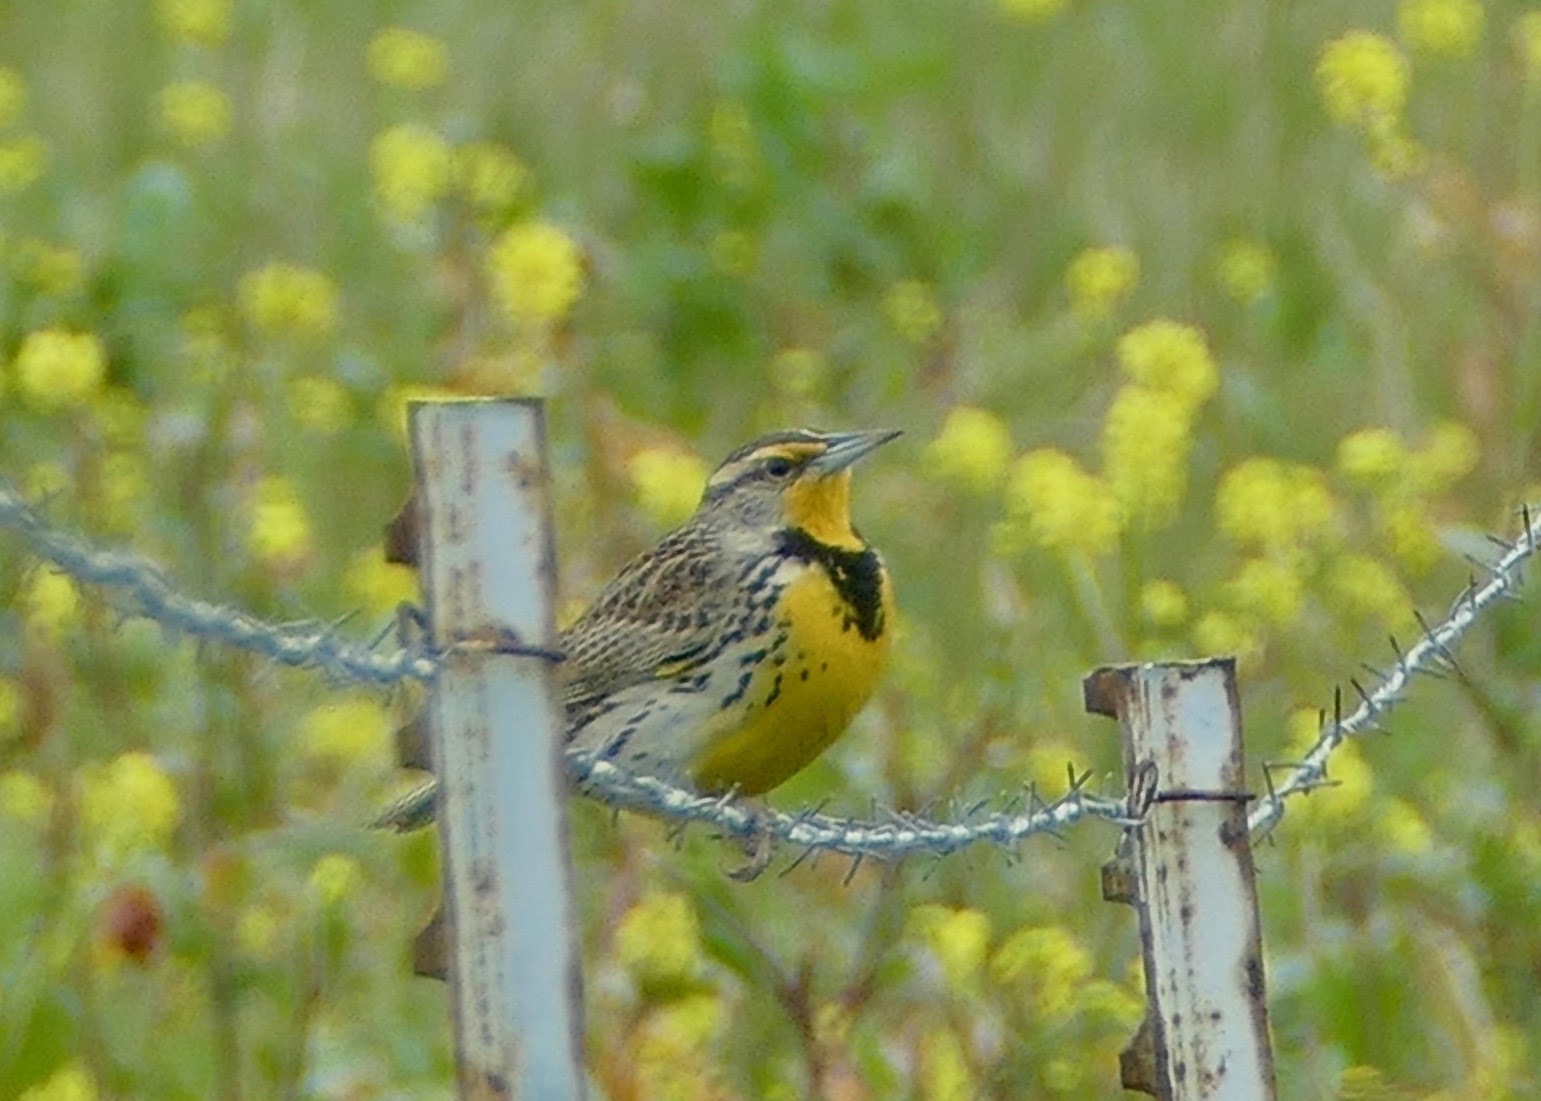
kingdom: Animalia
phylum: Chordata
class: Aves
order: Passeriformes
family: Icteridae
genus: Sturnella
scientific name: Sturnella neglecta
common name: Western meadowlark
